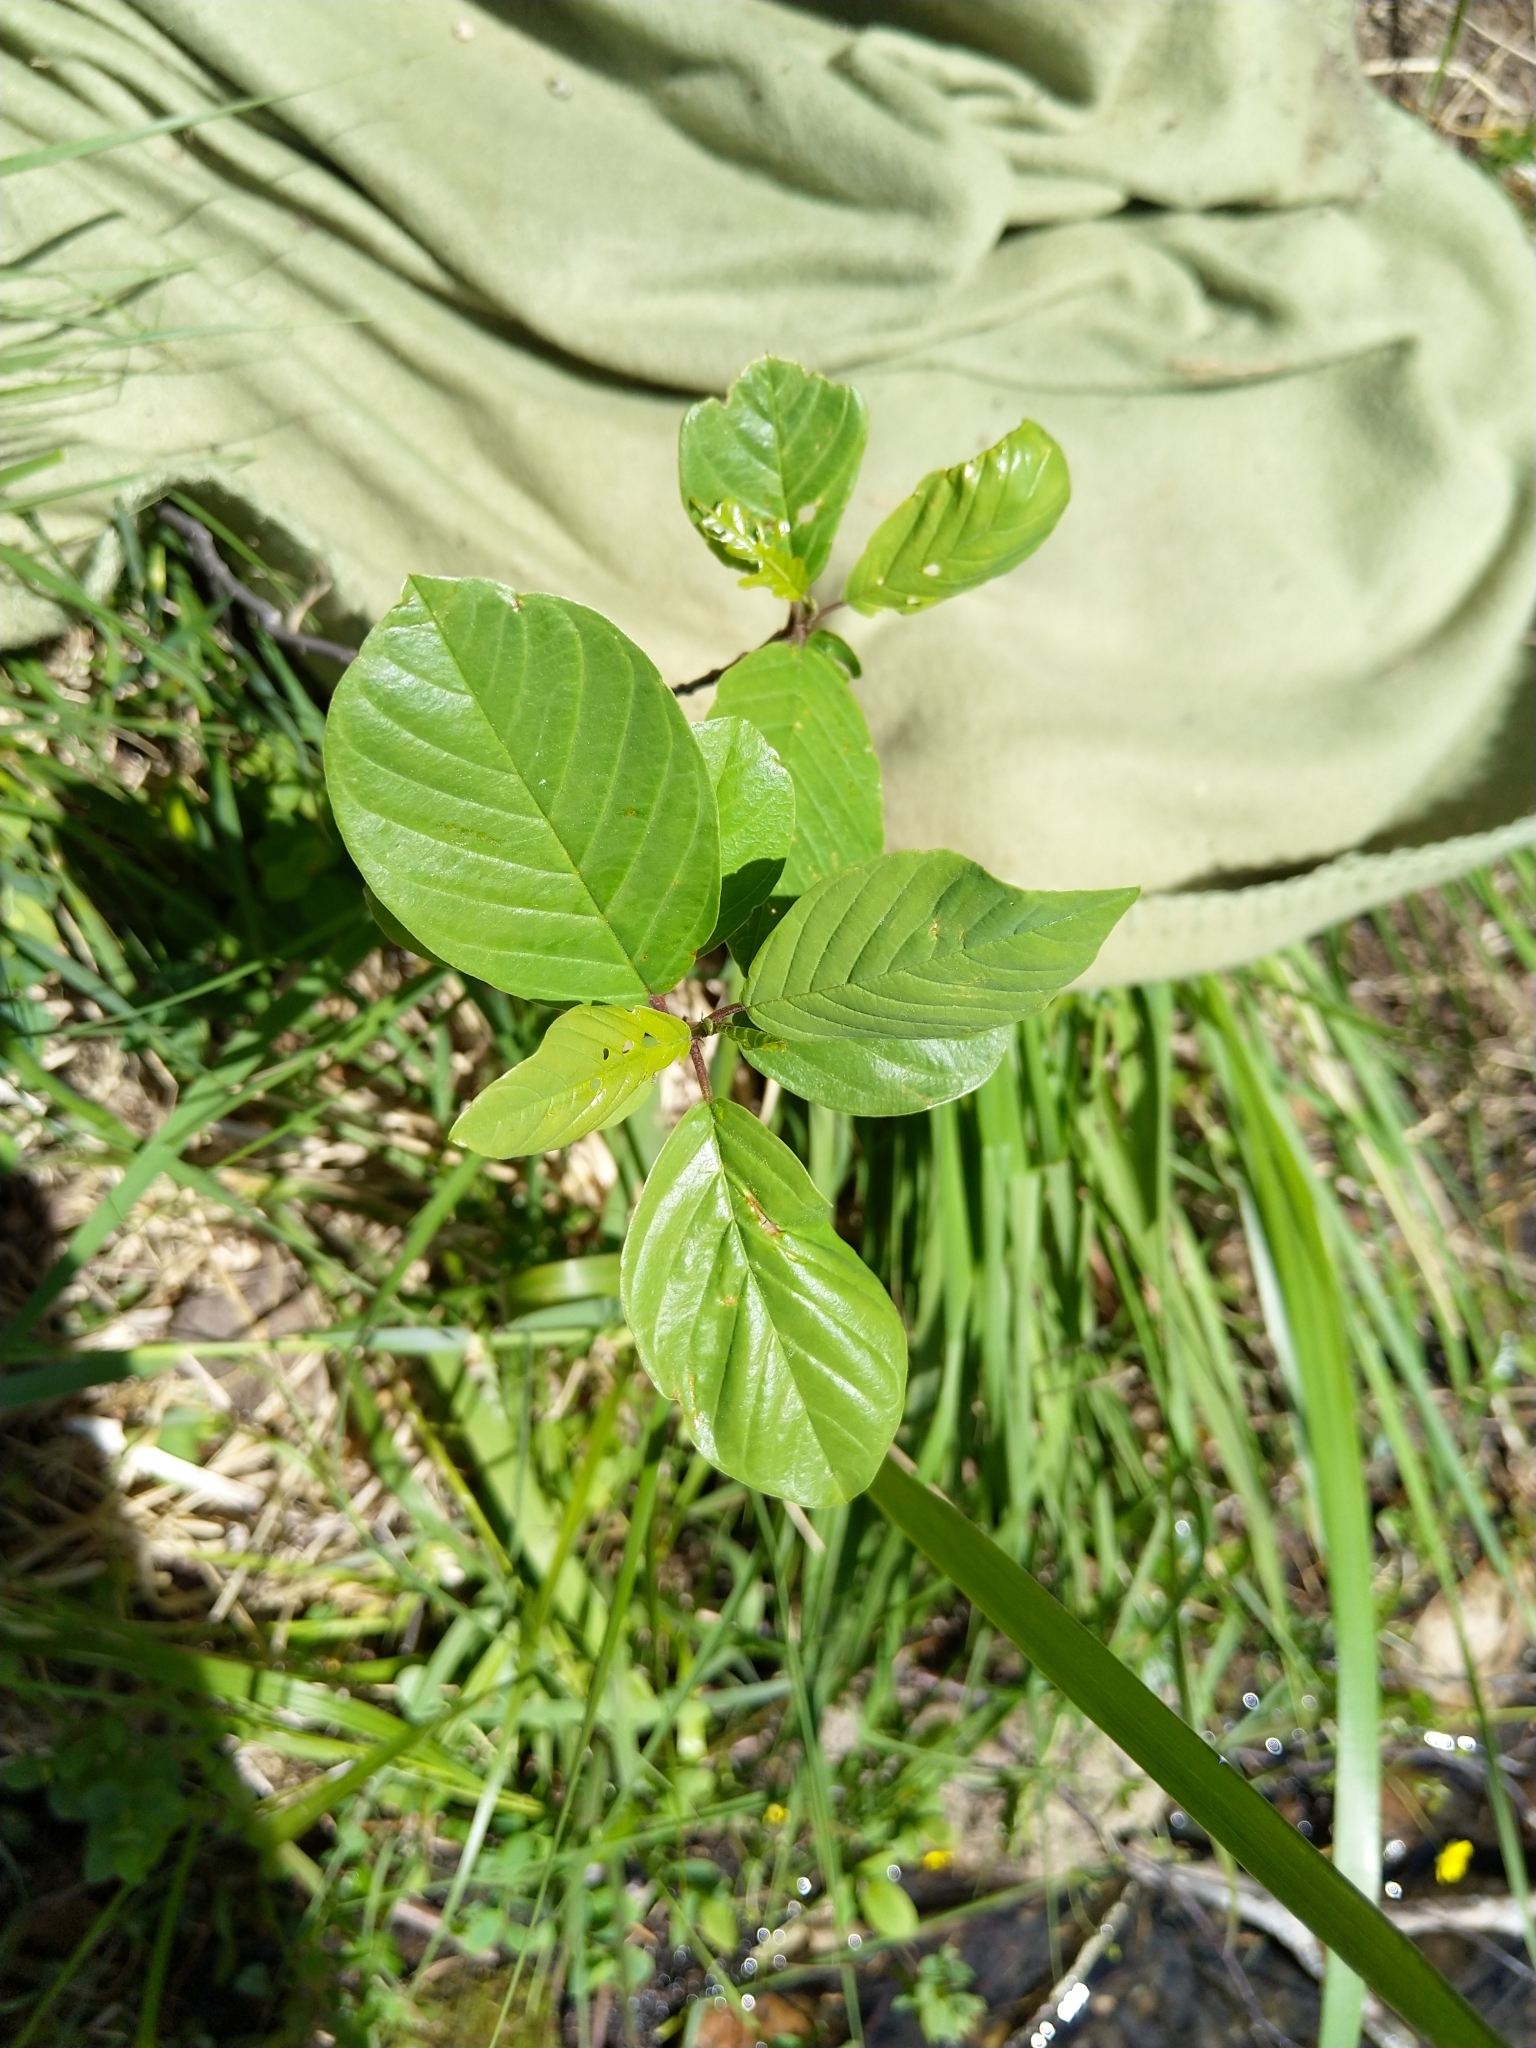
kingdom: Plantae
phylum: Tracheophyta
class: Magnoliopsida
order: Rosales
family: Rhamnaceae
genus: Frangula
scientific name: Frangula alnus
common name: Alder buckthorn
